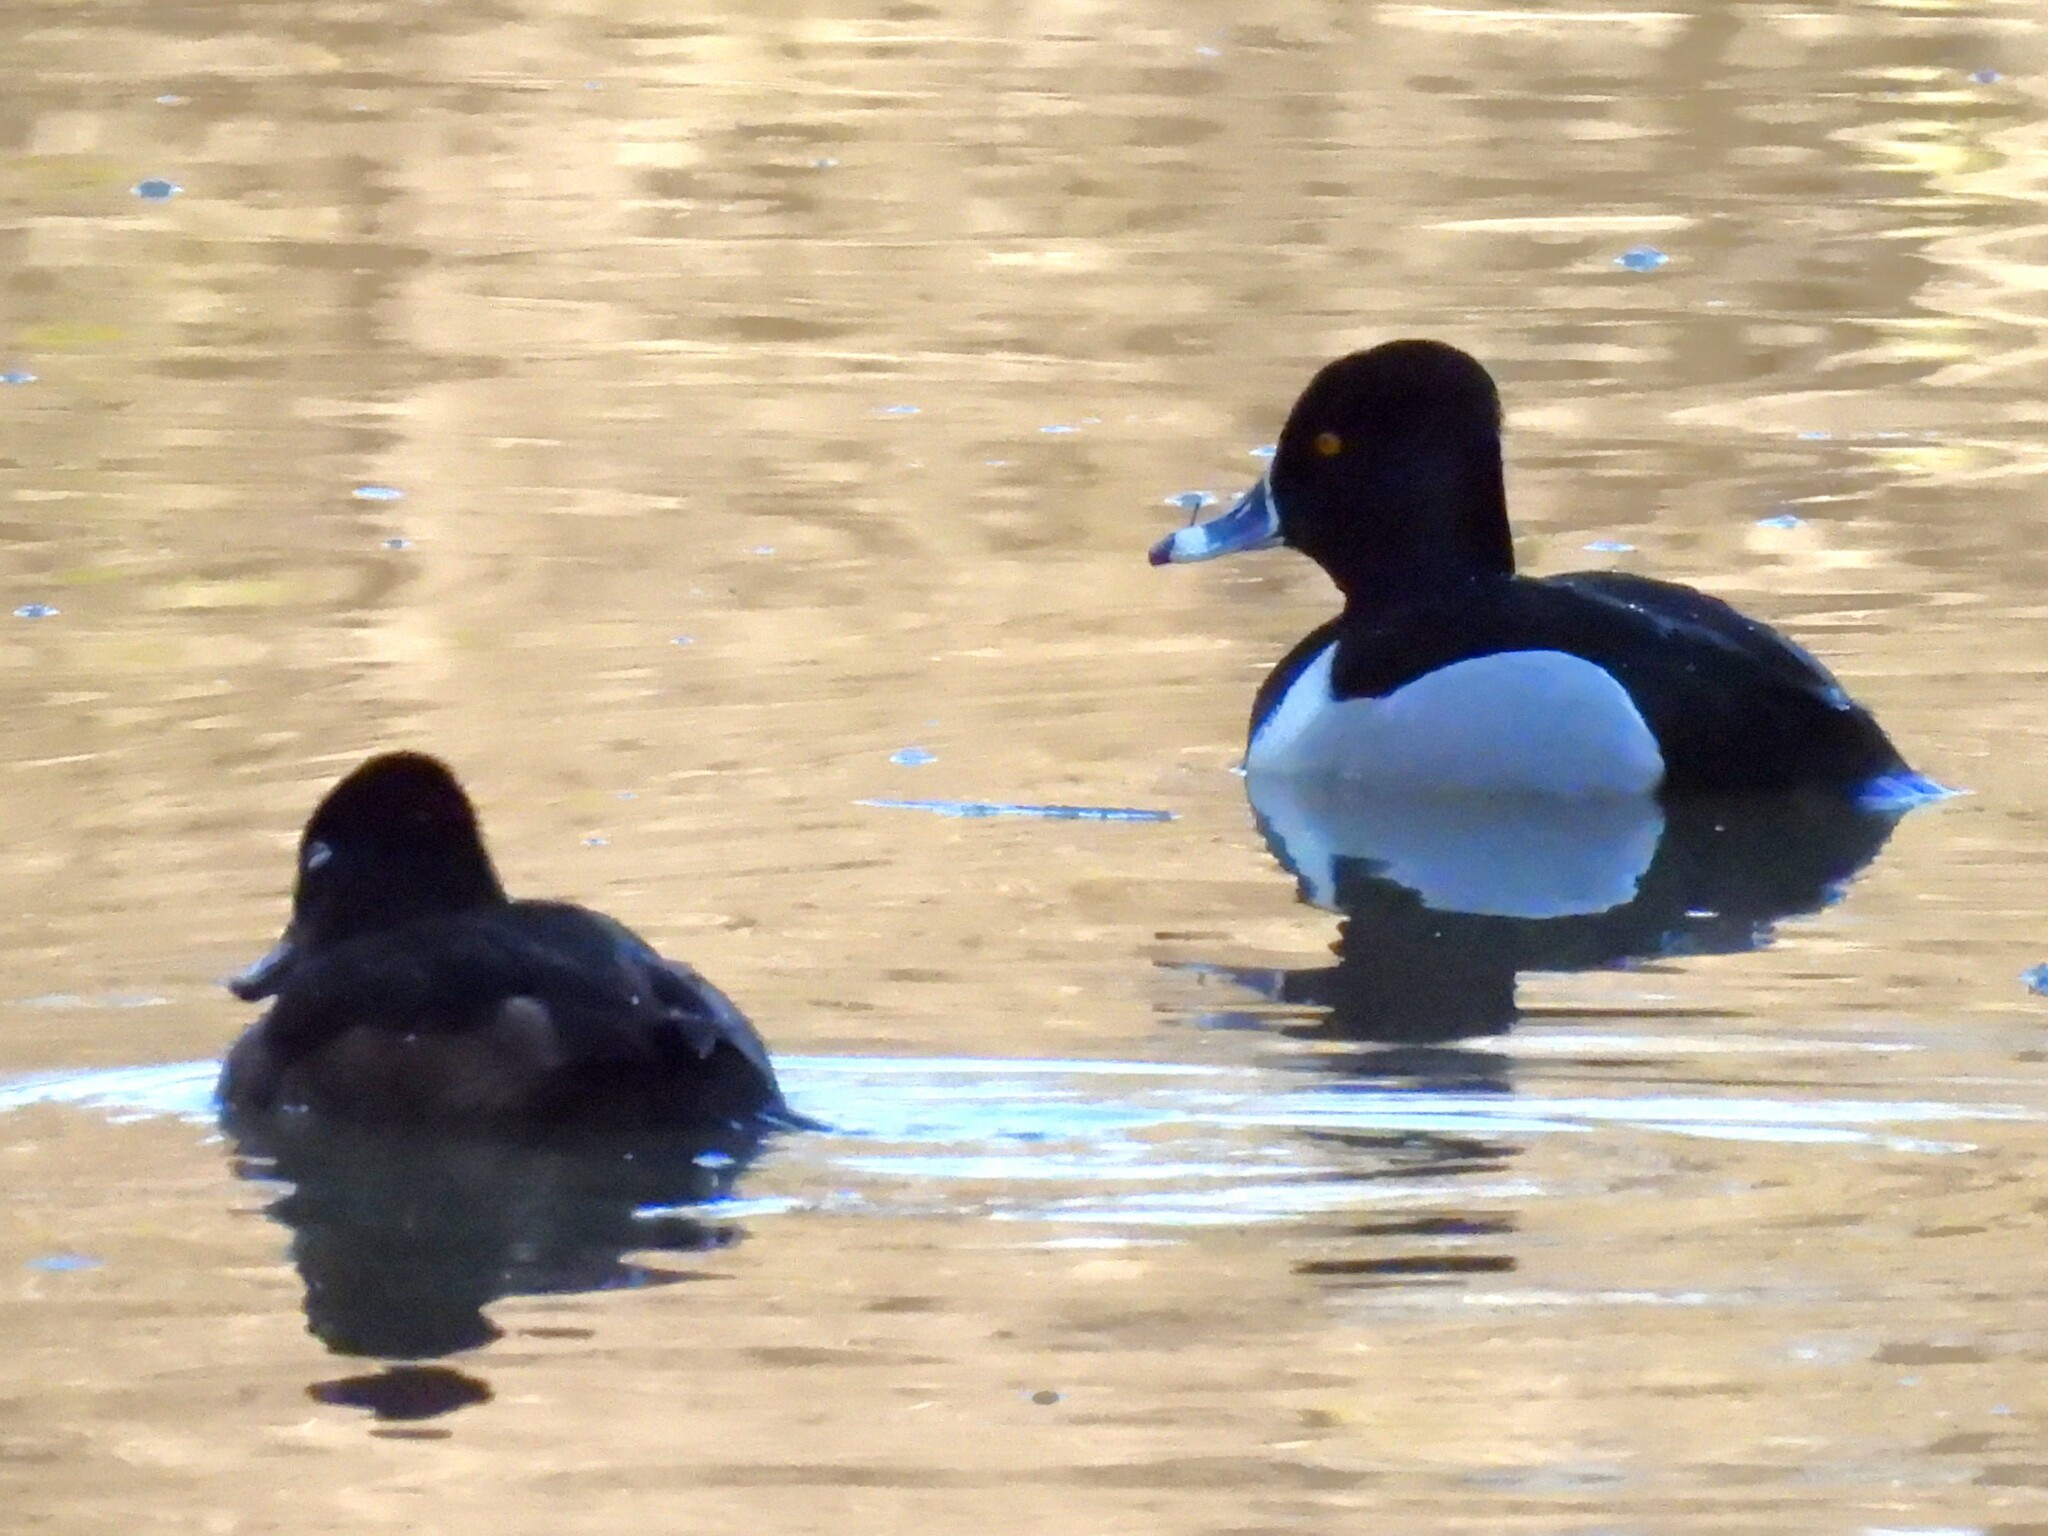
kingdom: Animalia
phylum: Chordata
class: Aves
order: Anseriformes
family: Anatidae
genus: Aythya
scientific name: Aythya collaris
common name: Ring-necked duck
